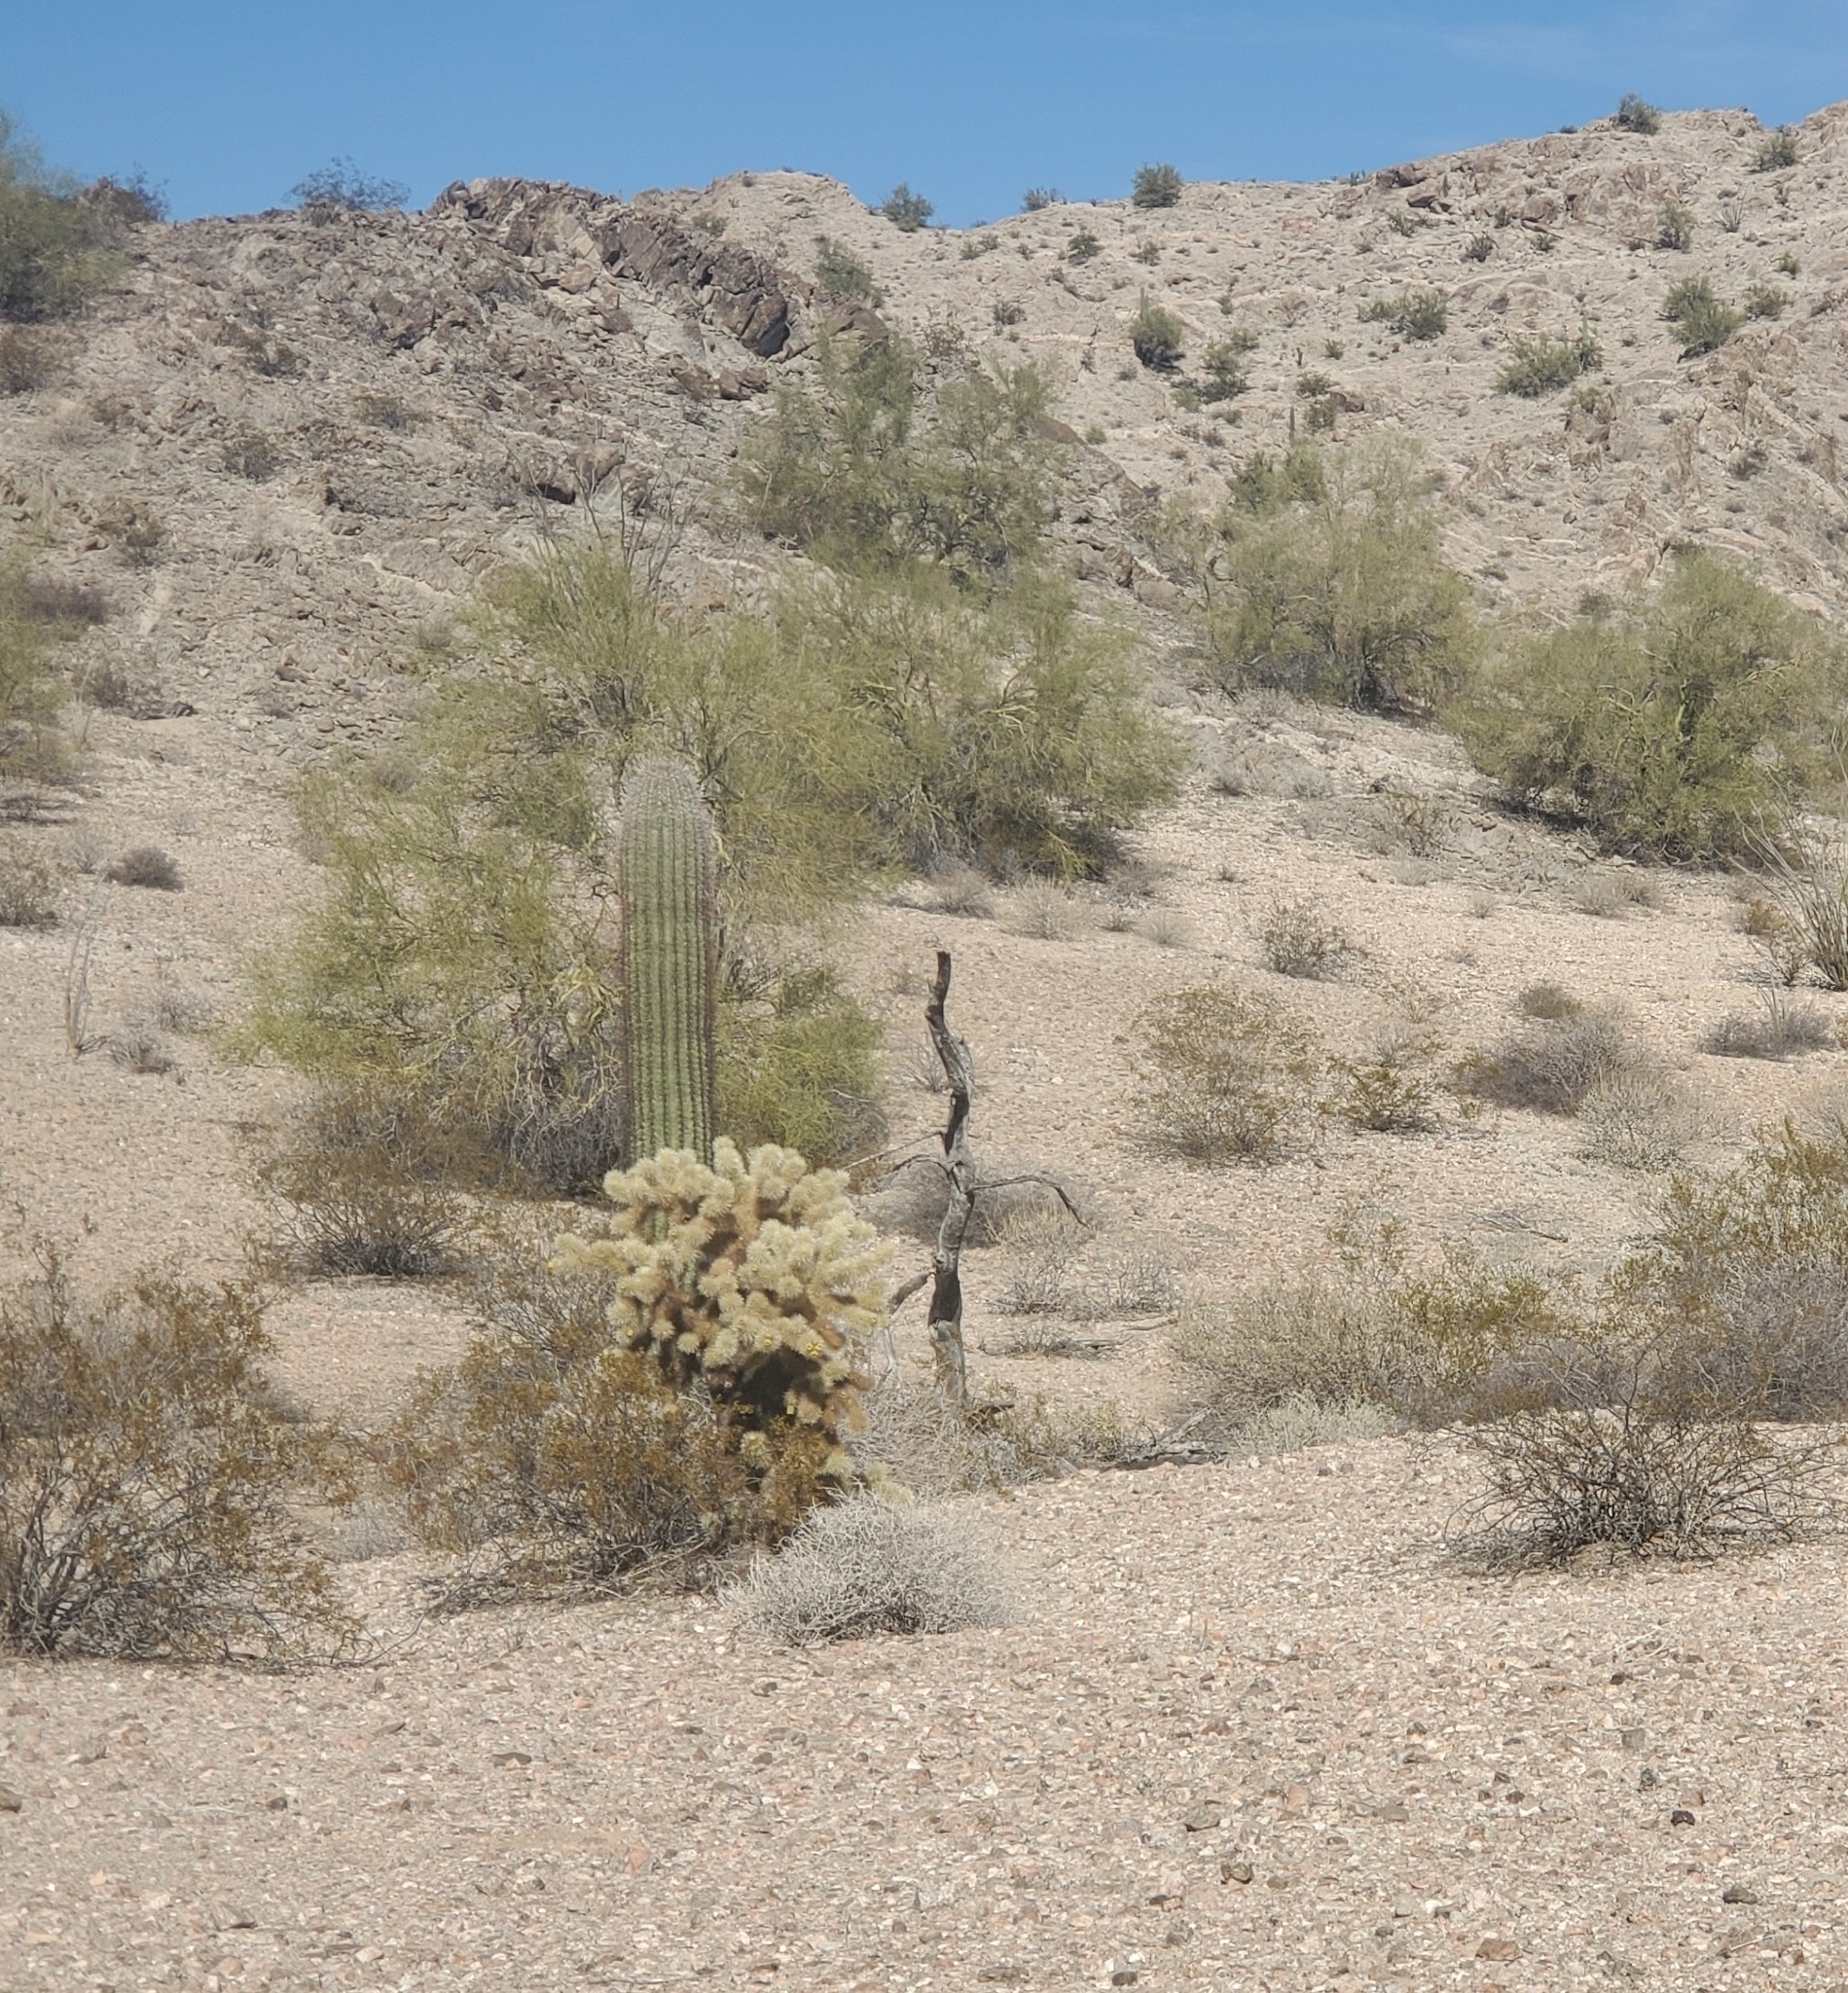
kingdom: Plantae
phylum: Tracheophyta
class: Magnoliopsida
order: Caryophyllales
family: Cactaceae
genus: Cylindropuntia
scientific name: Cylindropuntia fosbergii
